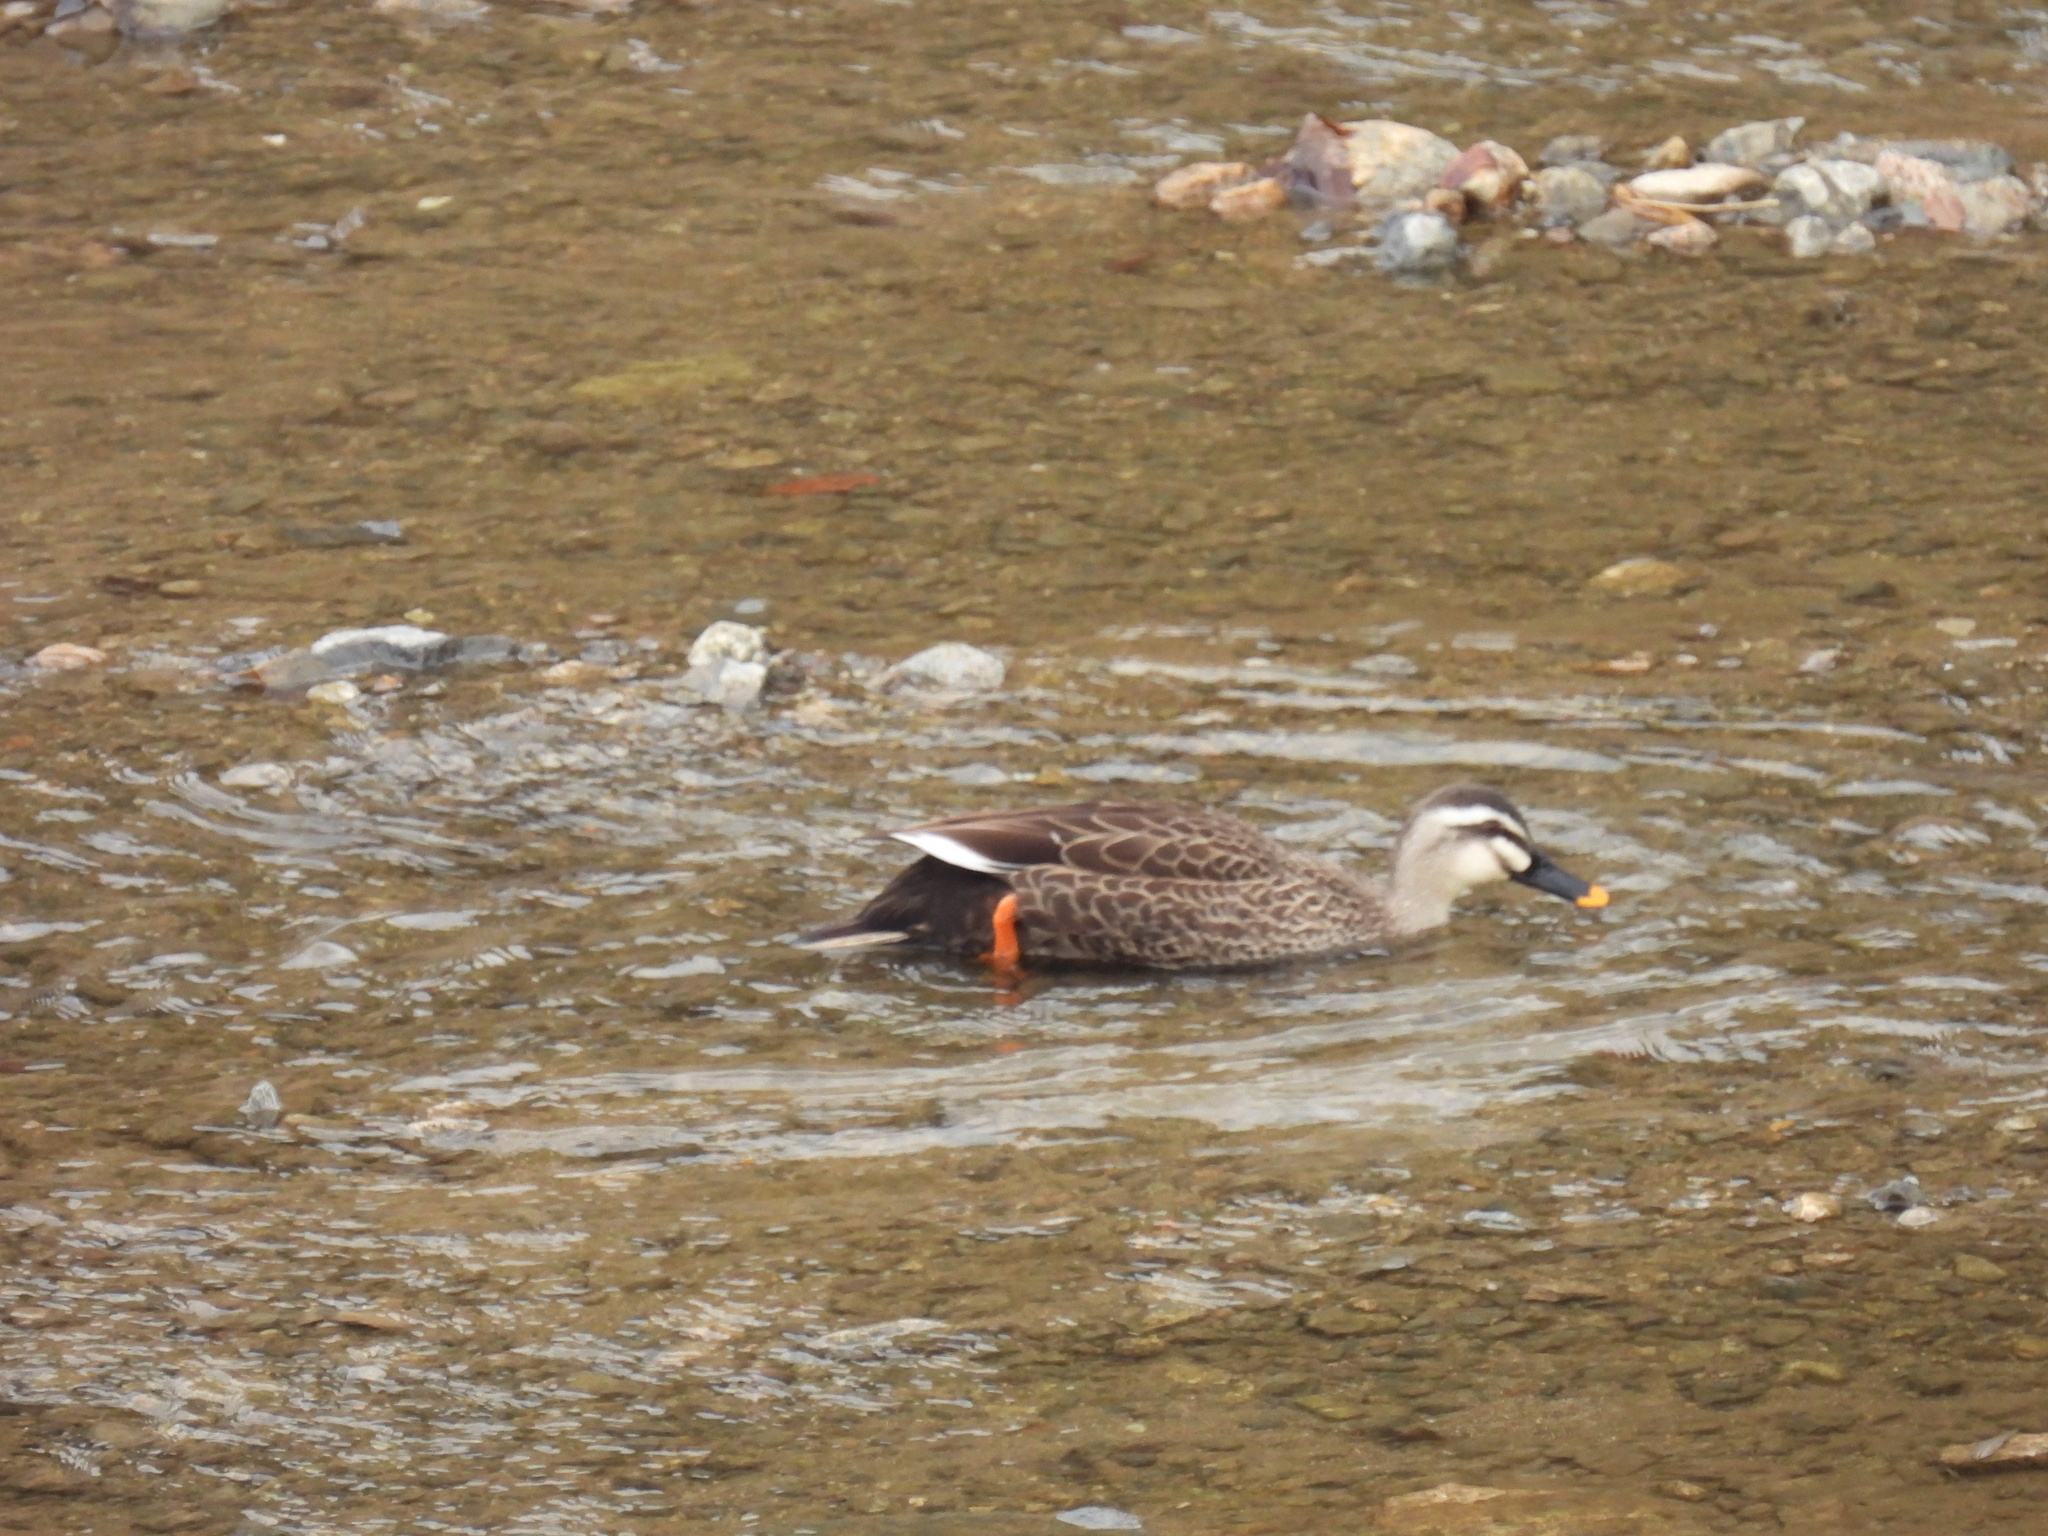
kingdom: Animalia
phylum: Chordata
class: Aves
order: Anseriformes
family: Anatidae
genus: Anas
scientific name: Anas zonorhyncha
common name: Eastern spot-billed duck
